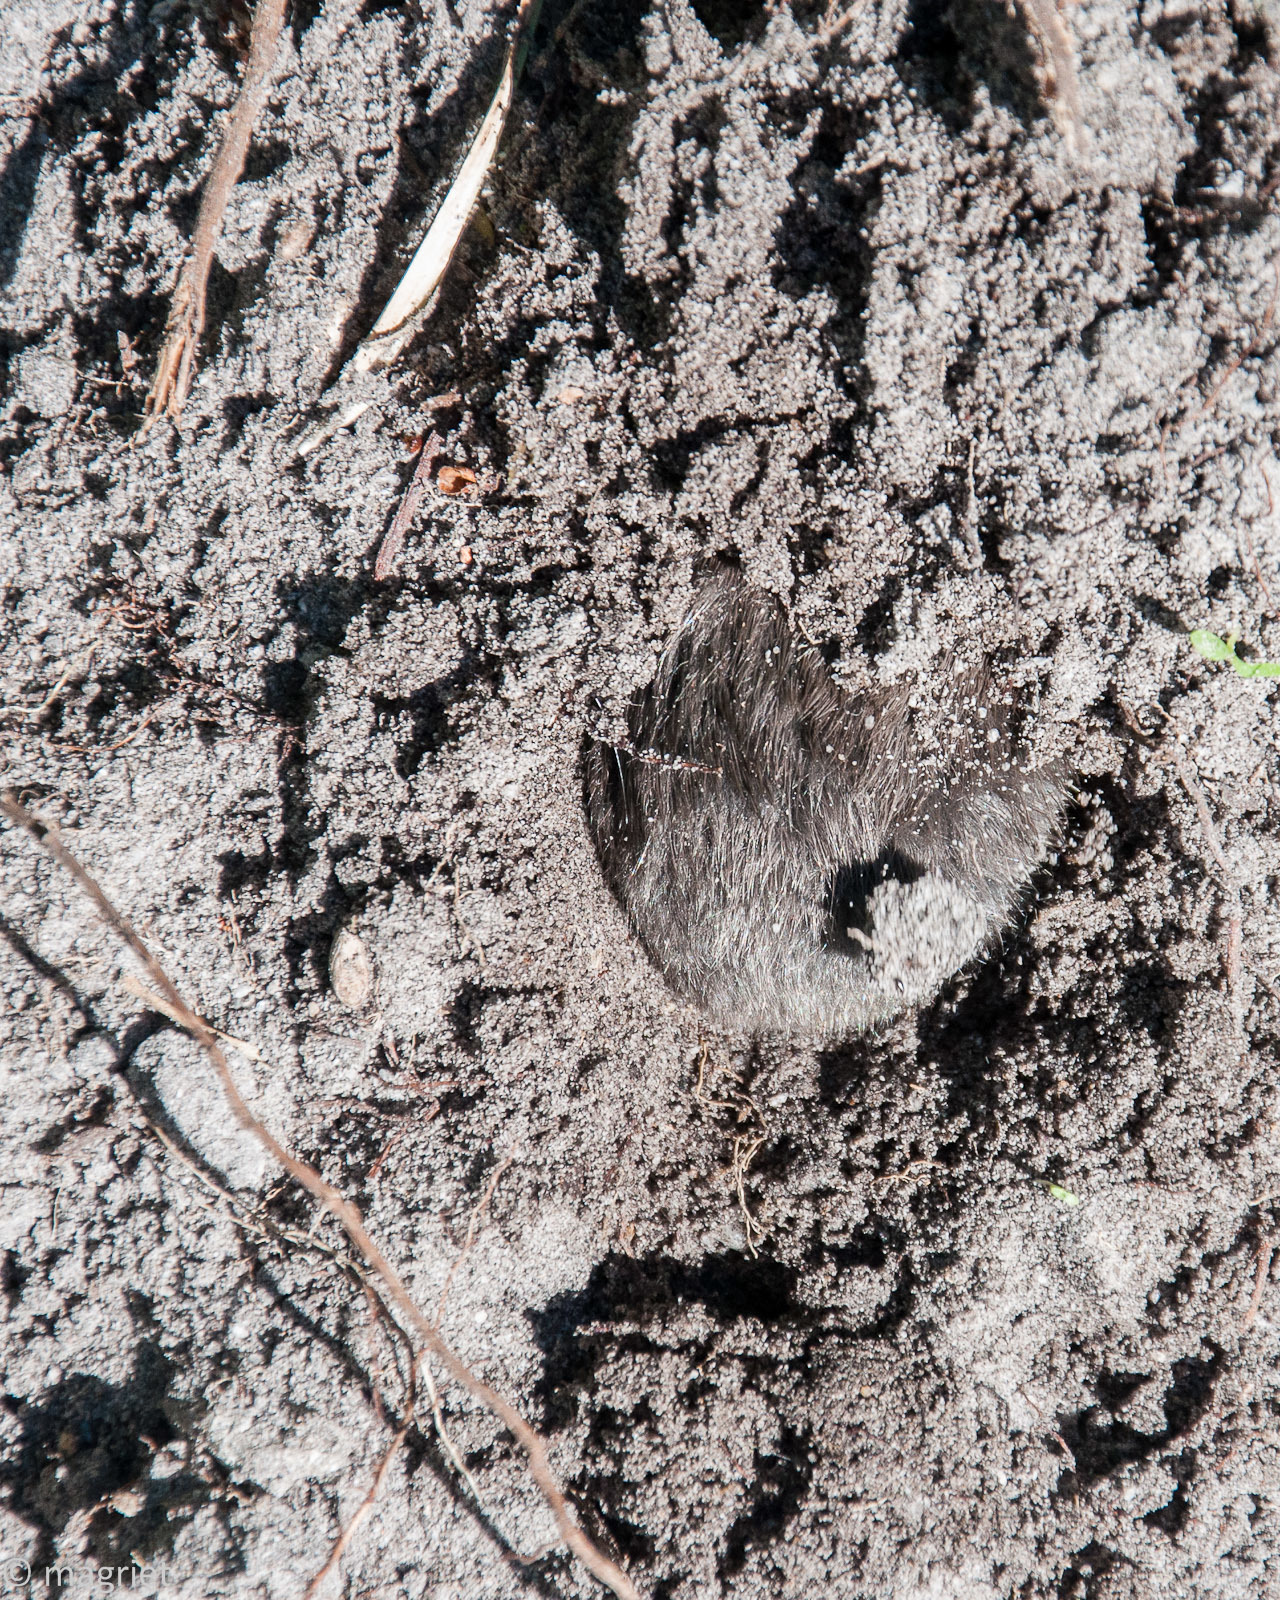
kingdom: Animalia
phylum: Chordata
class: Mammalia
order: Afrosoricida
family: Chrysochloridae
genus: Chrysochloris
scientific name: Chrysochloris asiatica
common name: Cape golden mole
